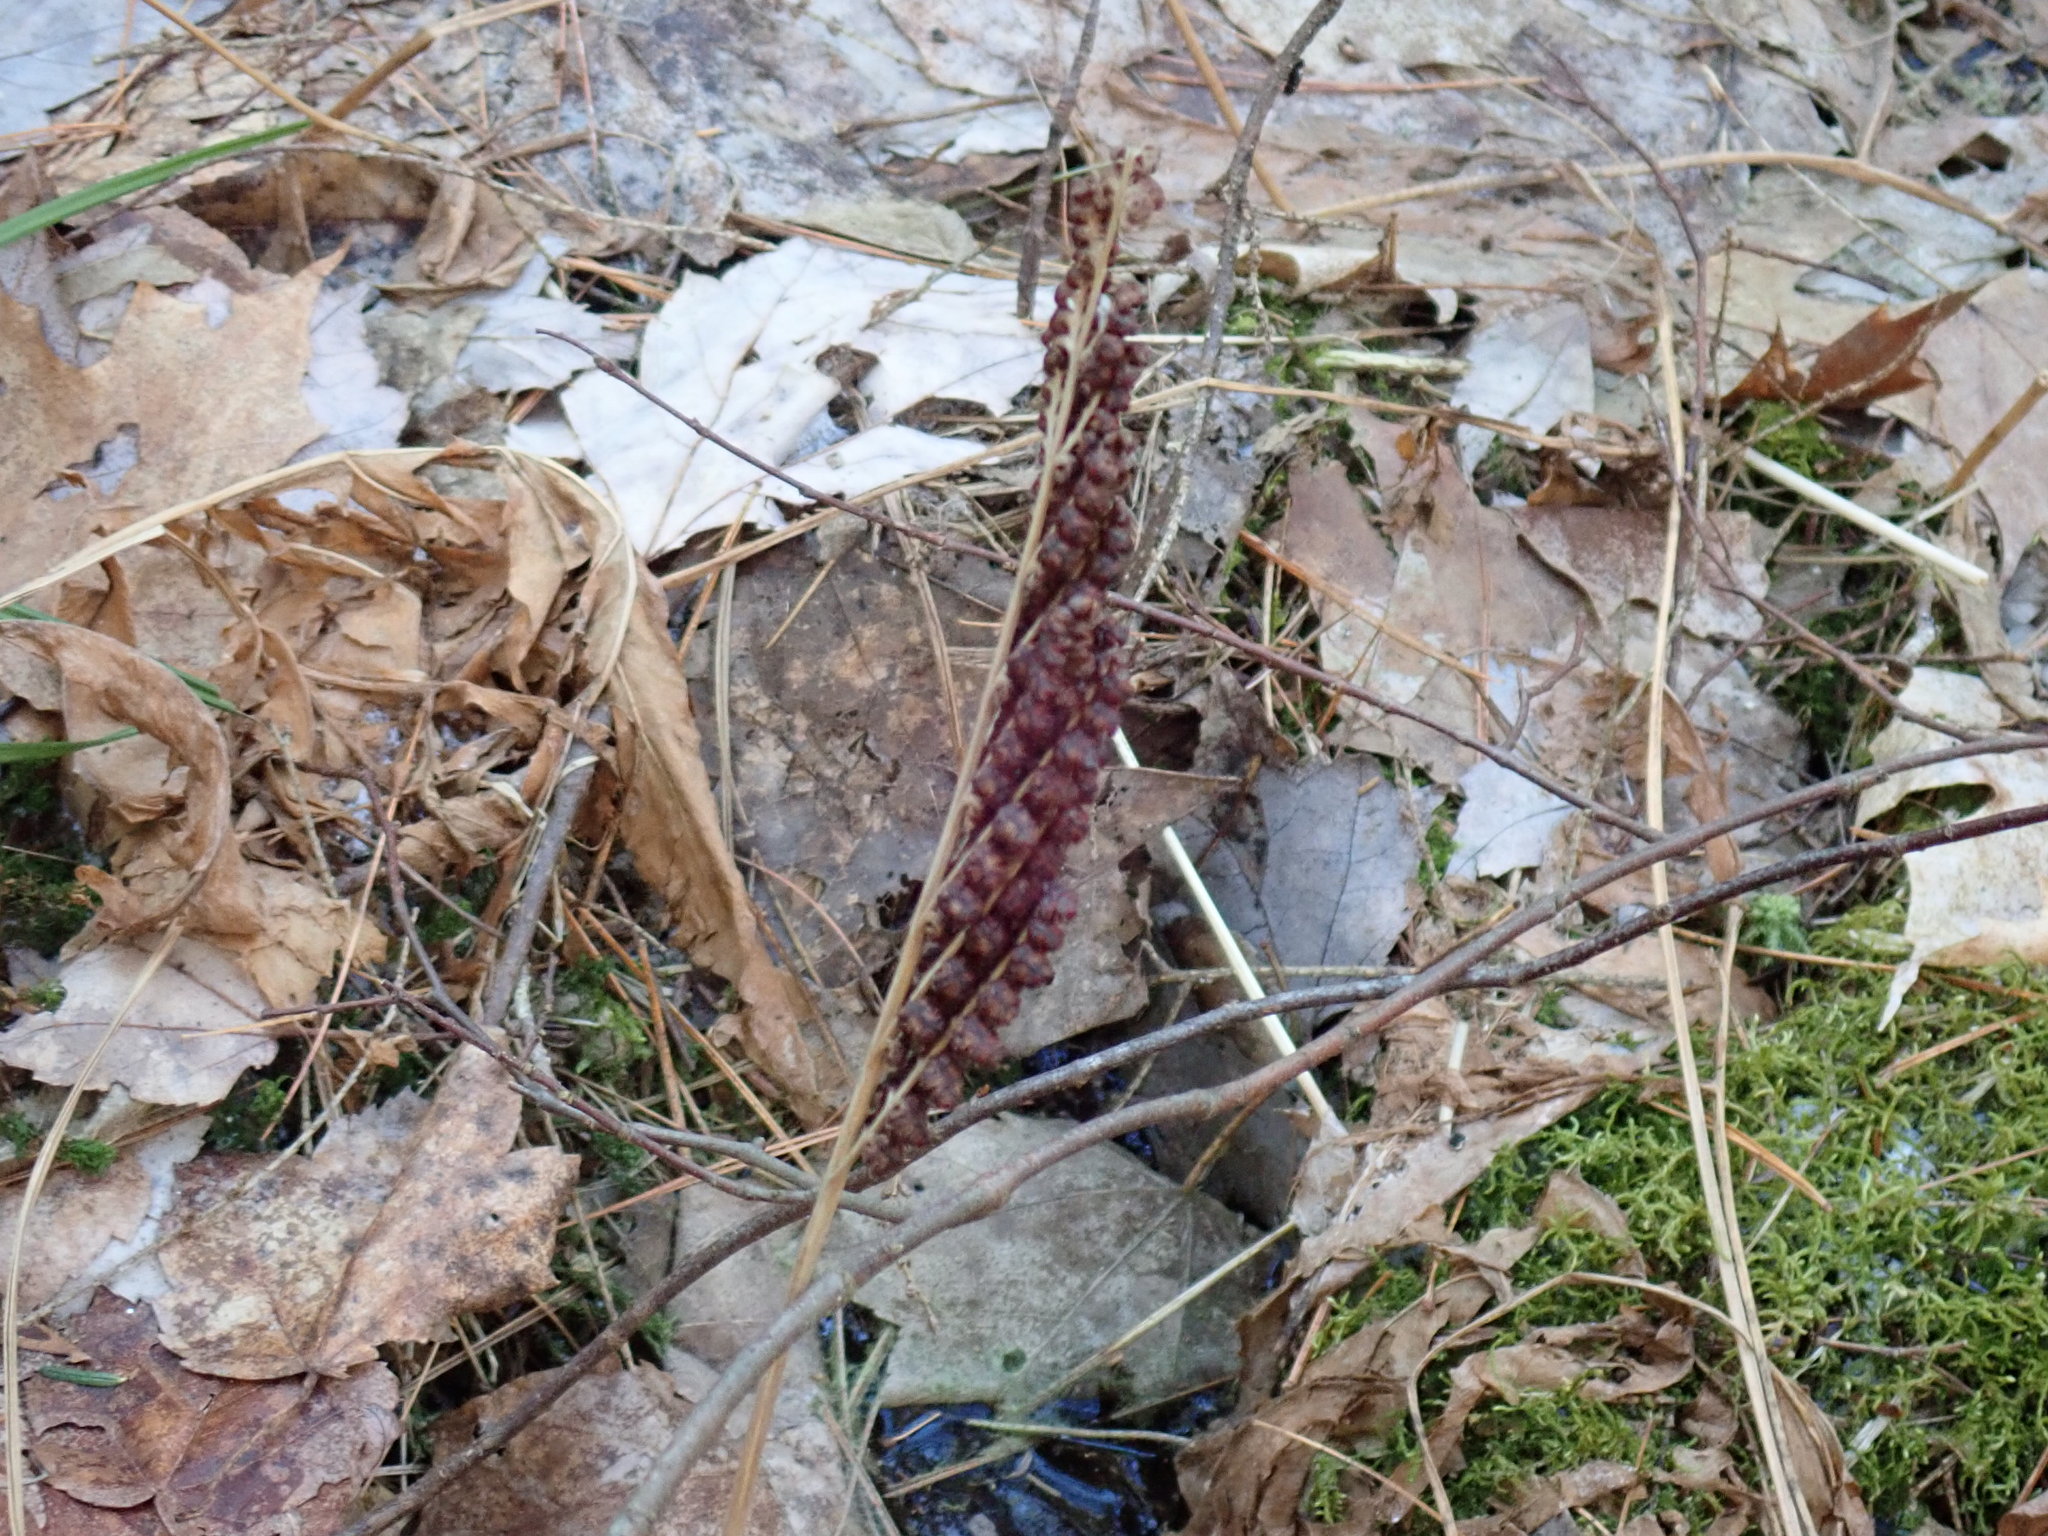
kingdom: Plantae
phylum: Tracheophyta
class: Polypodiopsida
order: Polypodiales
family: Onocleaceae
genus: Onoclea
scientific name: Onoclea sensibilis
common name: Sensitive fern
